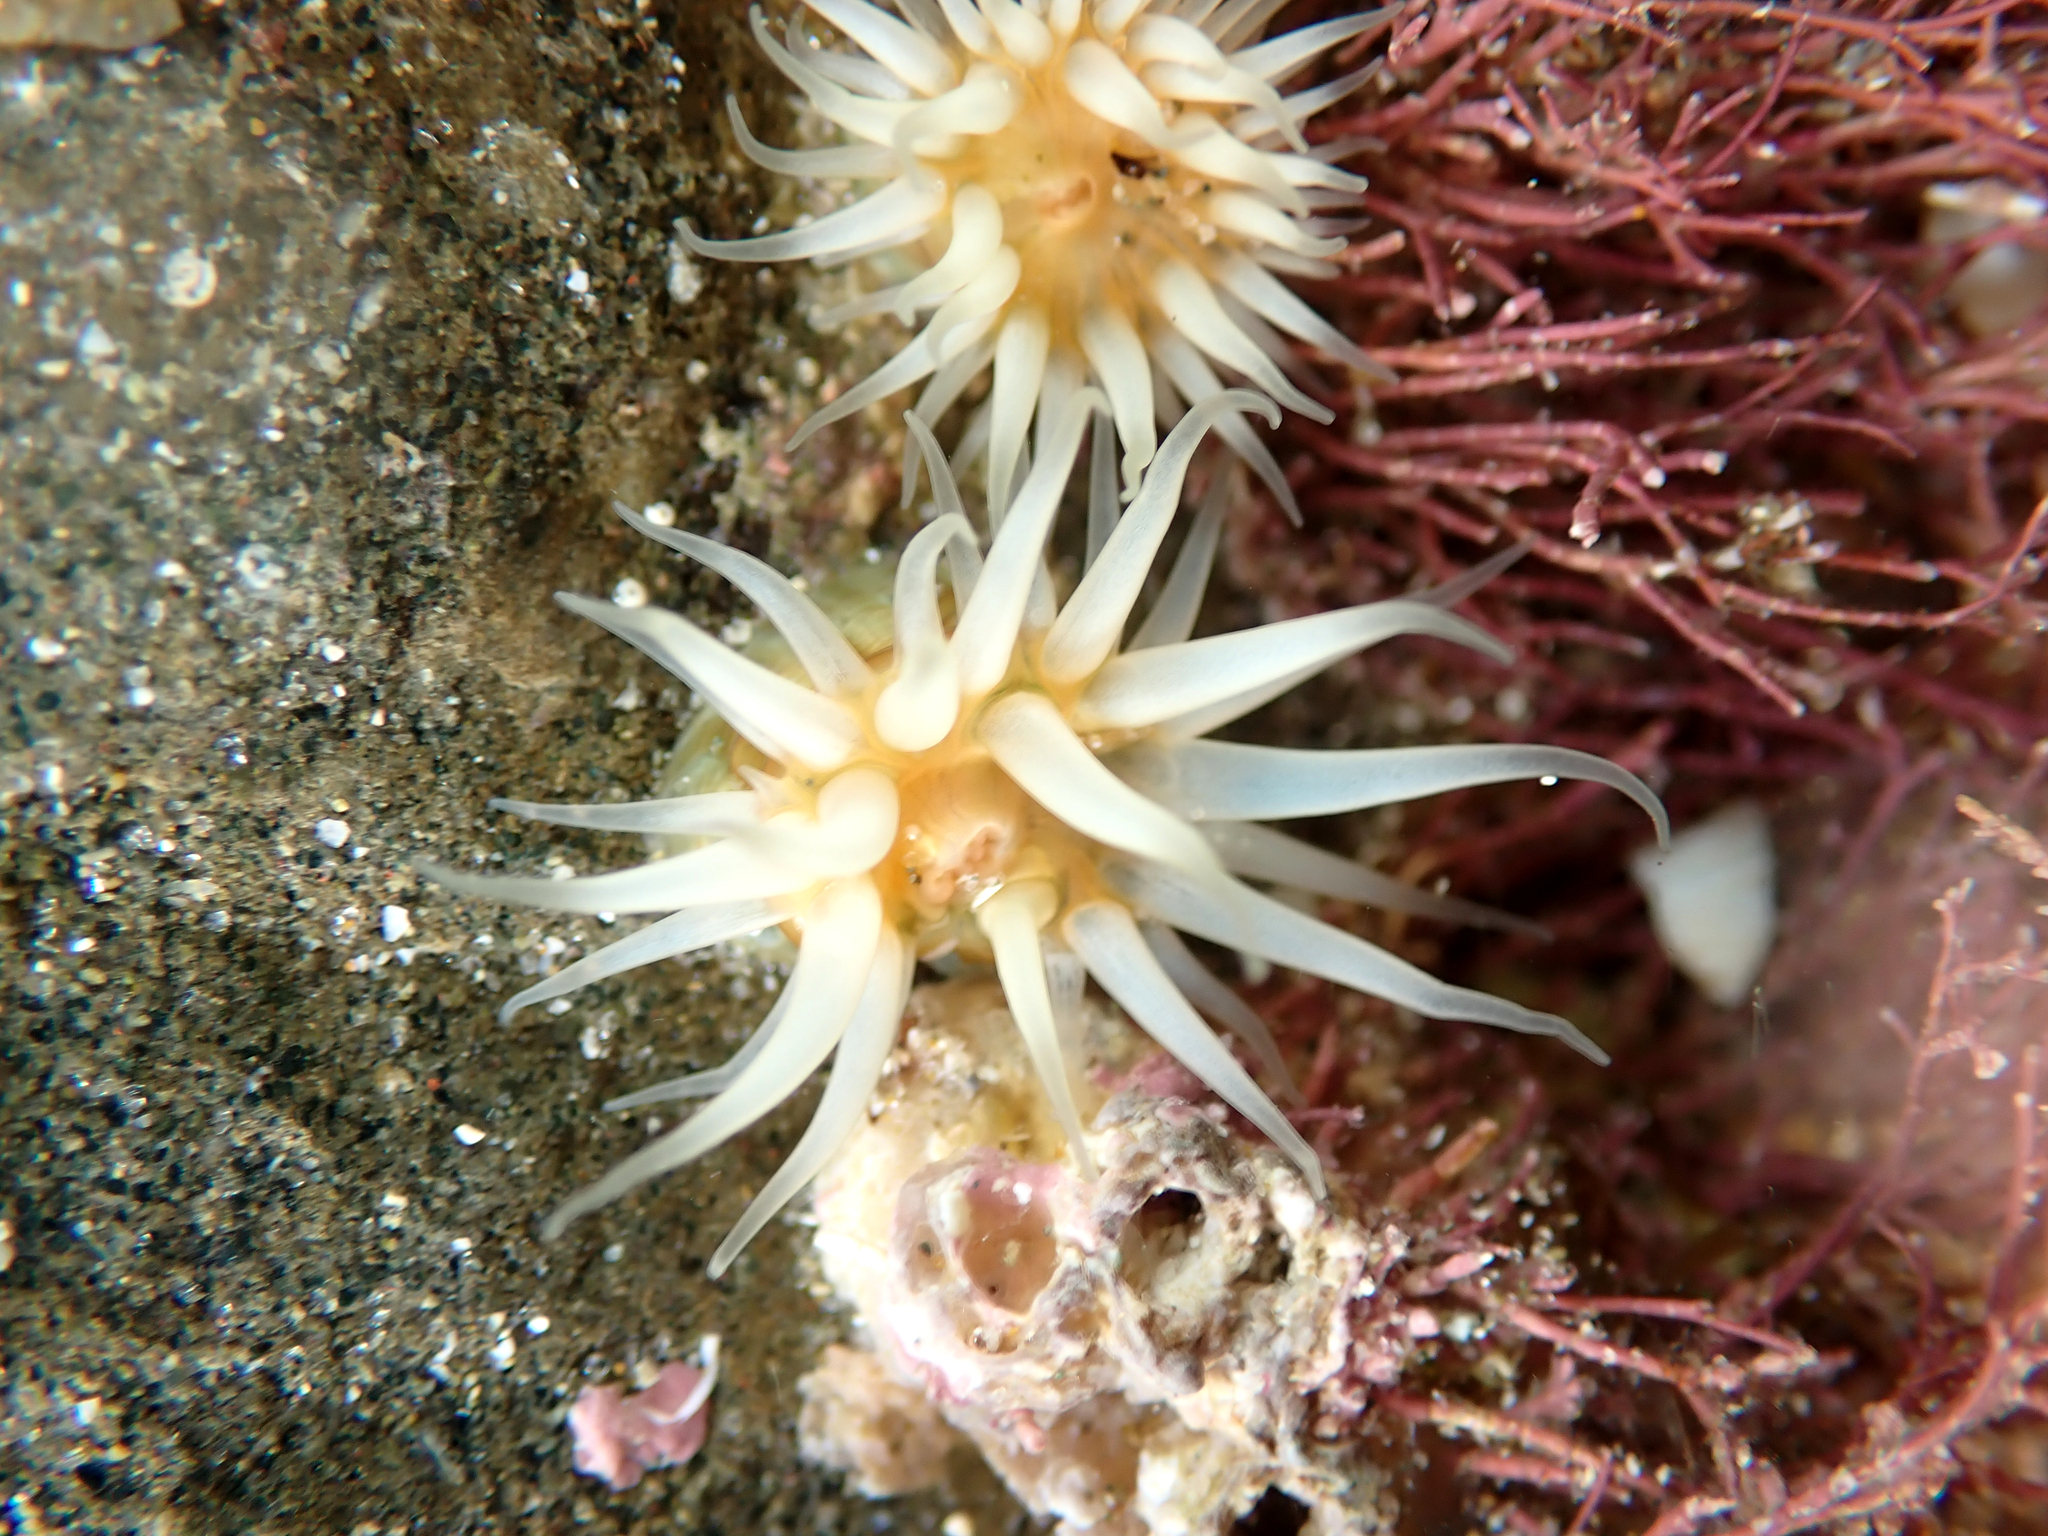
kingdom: Animalia
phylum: Cnidaria
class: Anthozoa
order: Actiniaria
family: Sagartiidae
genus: Anthothoe
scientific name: Anthothoe albocincta
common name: Orange striped anemone
